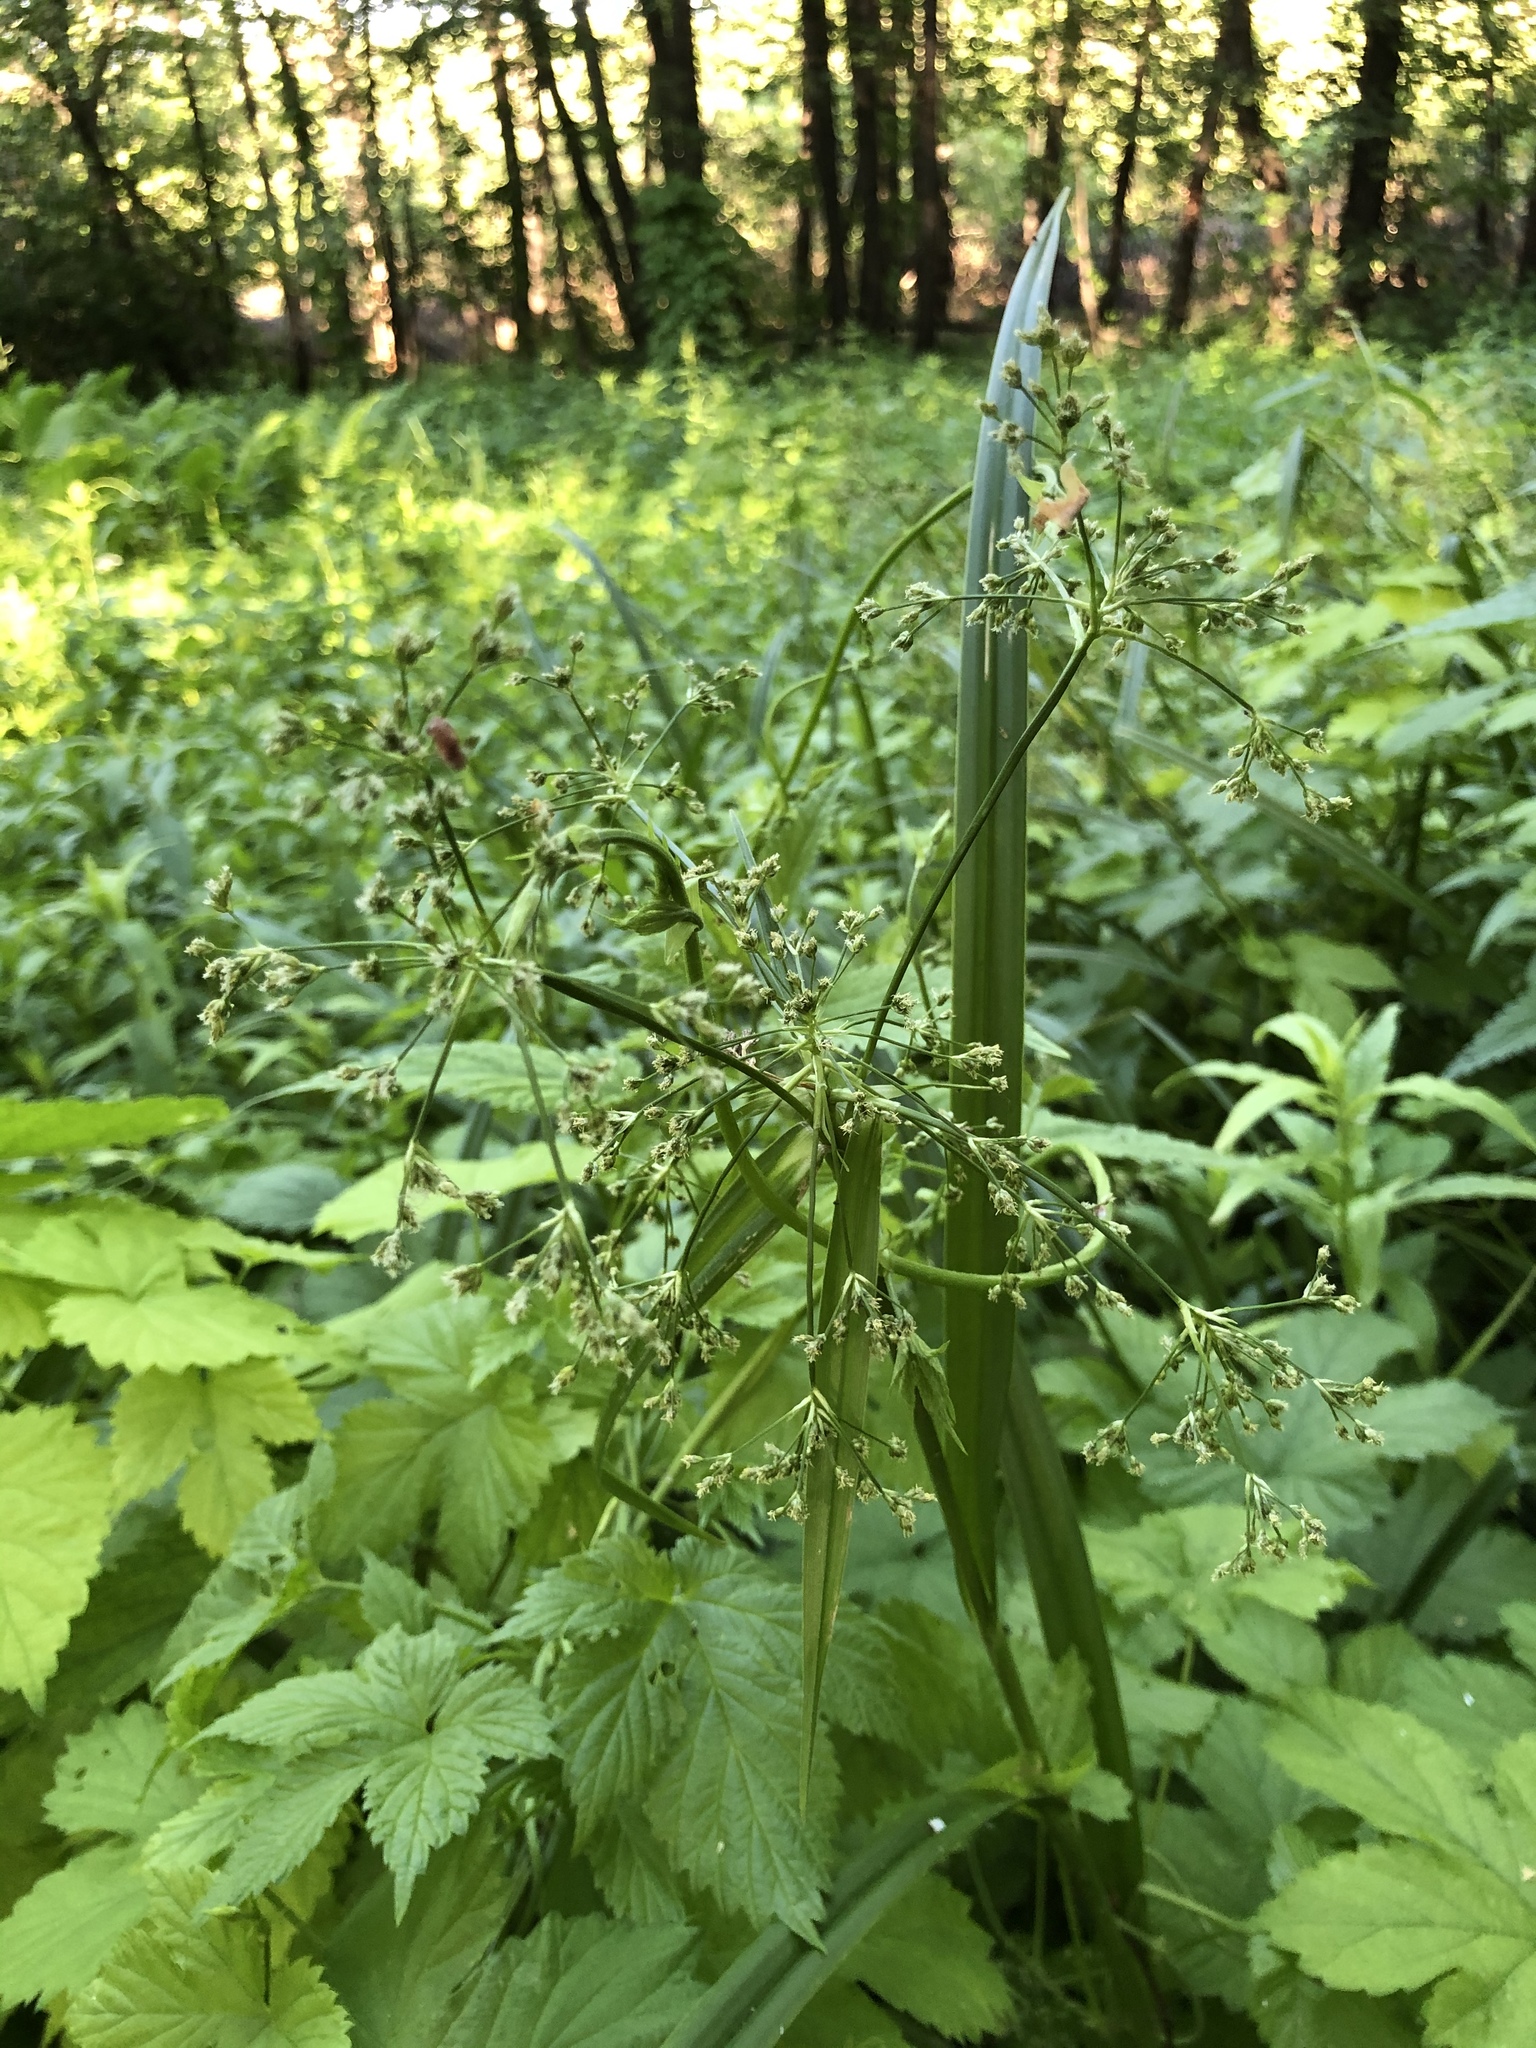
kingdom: Plantae
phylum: Tracheophyta
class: Liliopsida
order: Poales
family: Cyperaceae
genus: Scirpus
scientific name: Scirpus sylvaticus
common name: Wood club-rush
